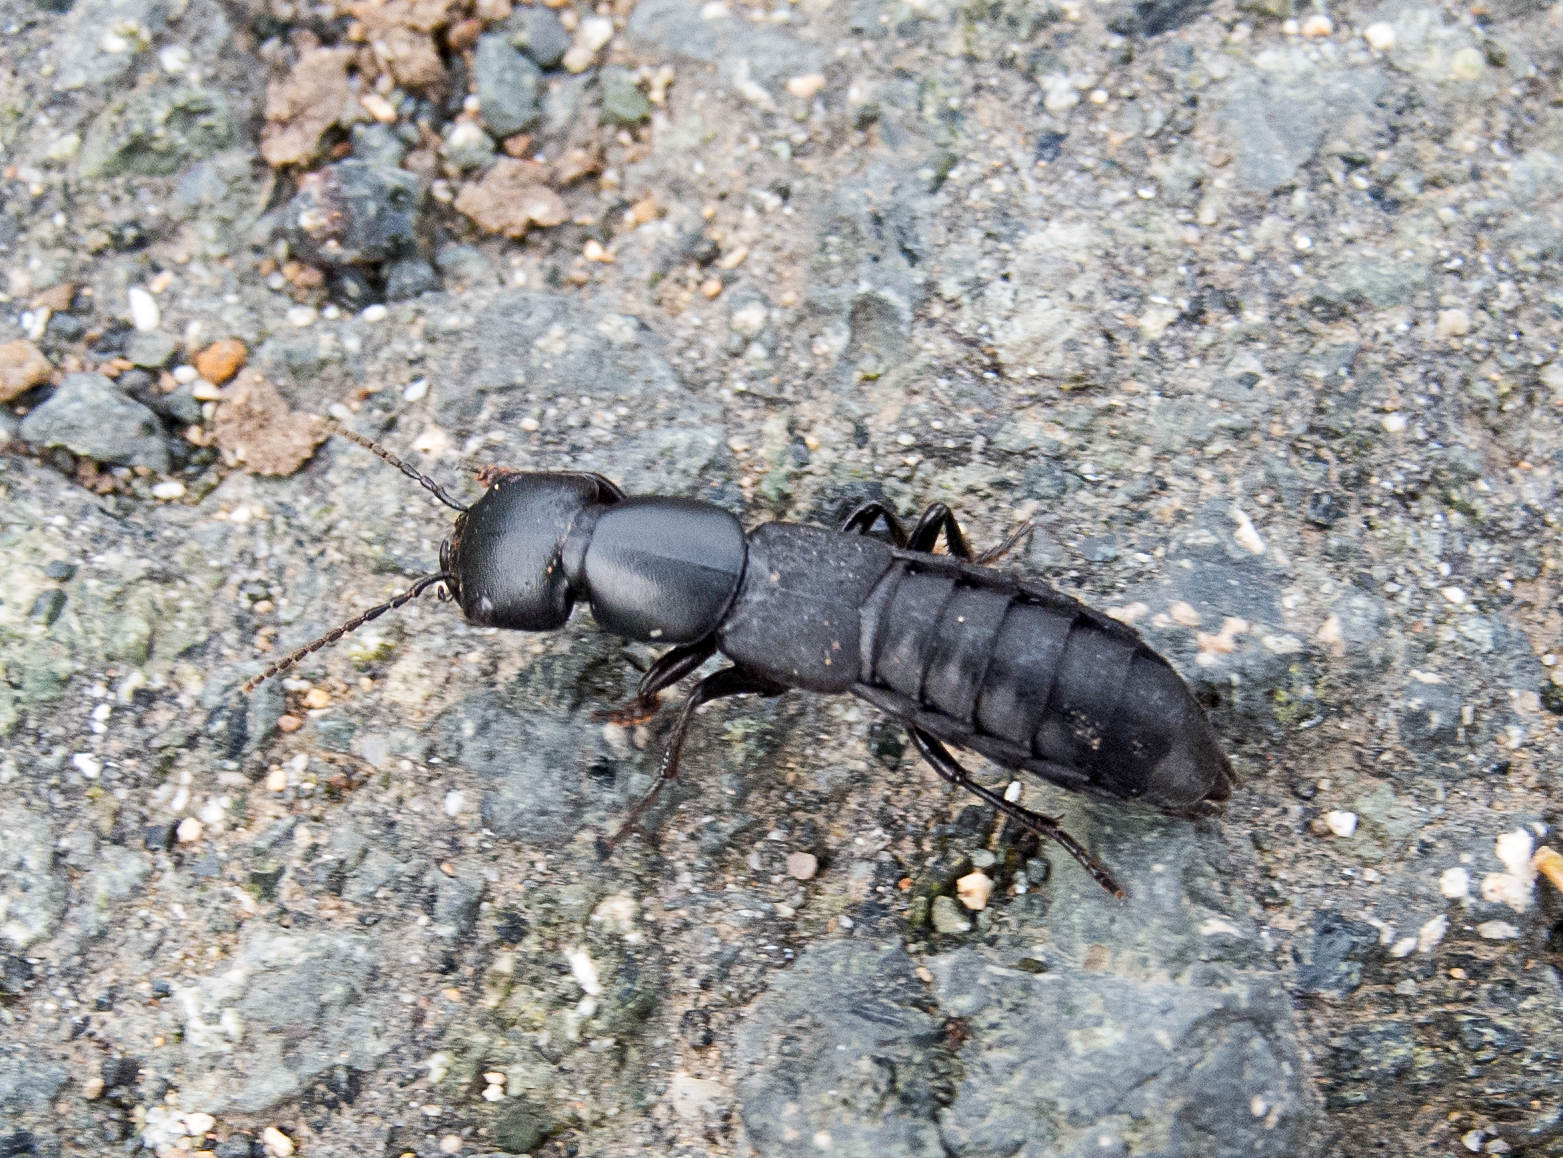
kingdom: Animalia
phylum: Arthropoda
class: Insecta
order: Coleoptera
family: Staphylinidae
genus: Ocypus
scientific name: Ocypus nitens
